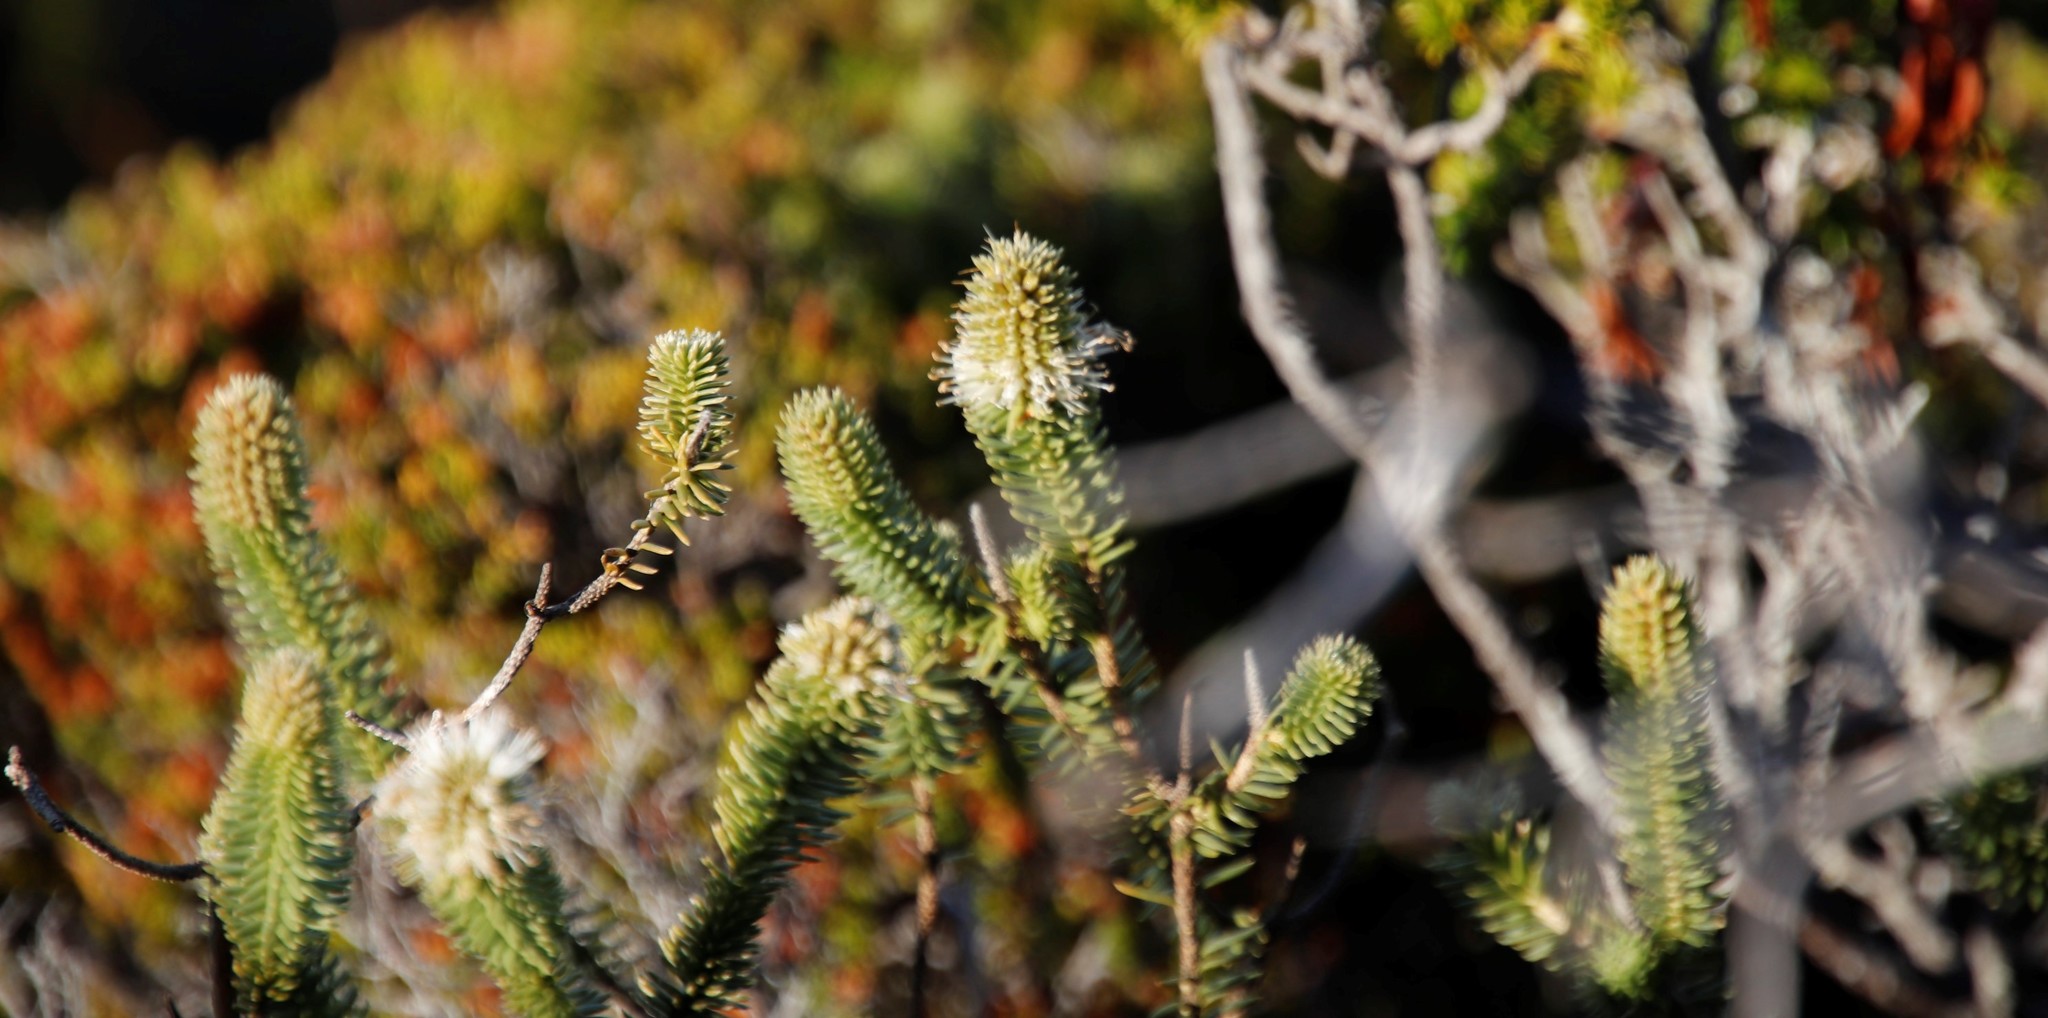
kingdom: Plantae
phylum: Tracheophyta
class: Magnoliopsida
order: Lamiales
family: Stilbaceae
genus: Stilbe
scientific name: Stilbe vestita
